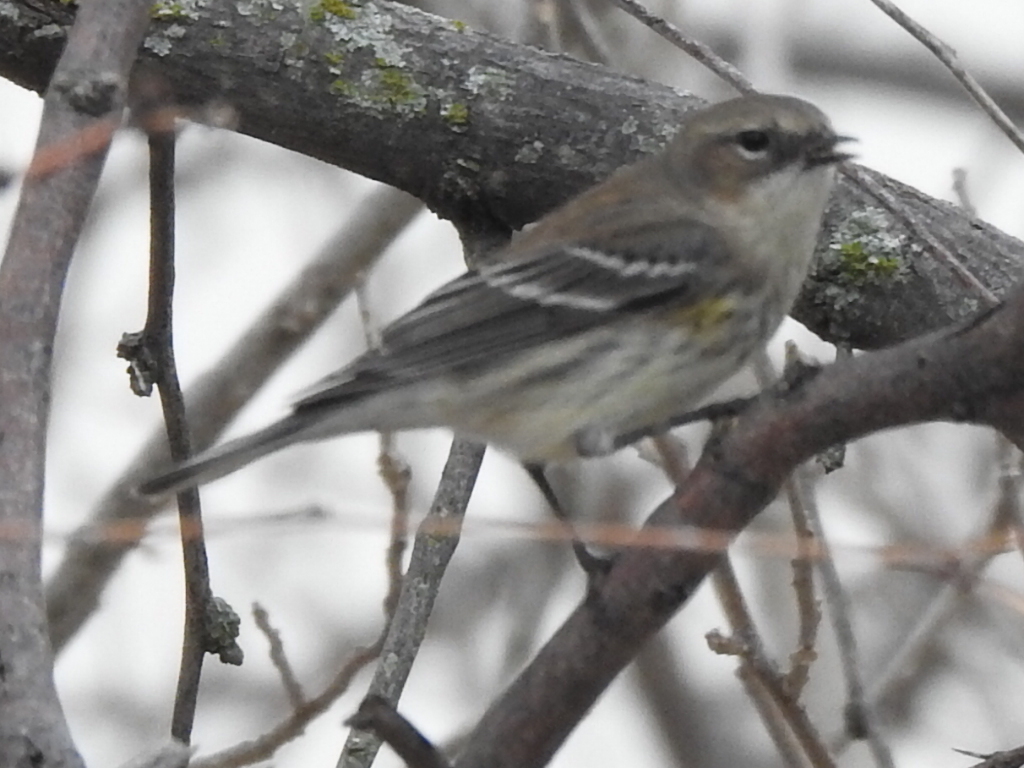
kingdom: Animalia
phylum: Chordata
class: Aves
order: Passeriformes
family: Parulidae
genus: Setophaga
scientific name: Setophaga coronata
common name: Myrtle warbler
